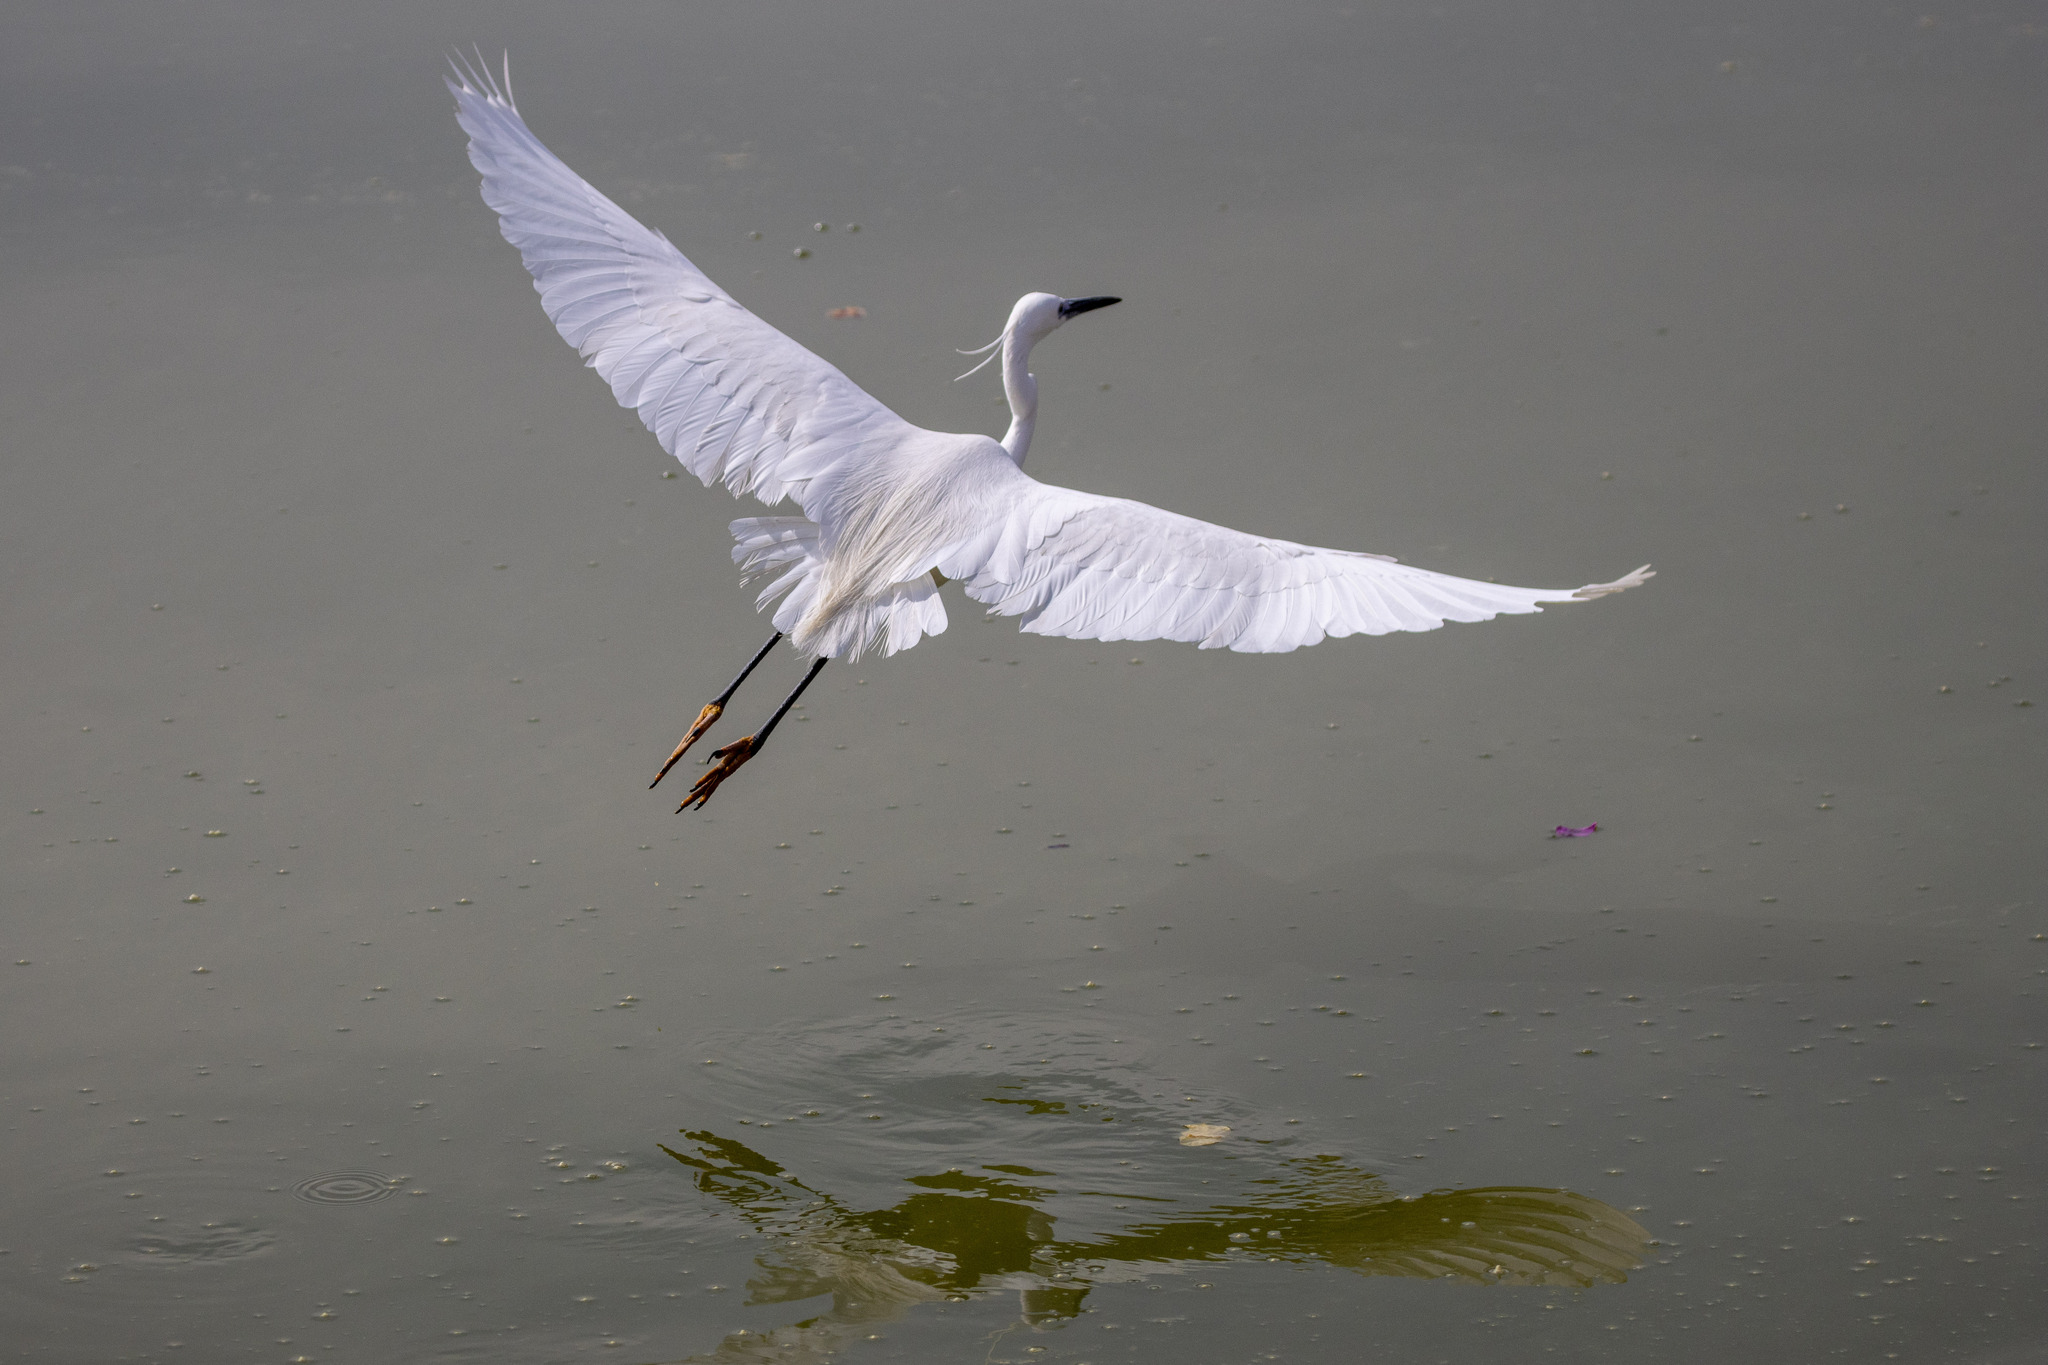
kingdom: Animalia
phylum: Chordata
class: Aves
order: Pelecaniformes
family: Ardeidae
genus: Egretta
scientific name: Egretta garzetta
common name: Little egret
